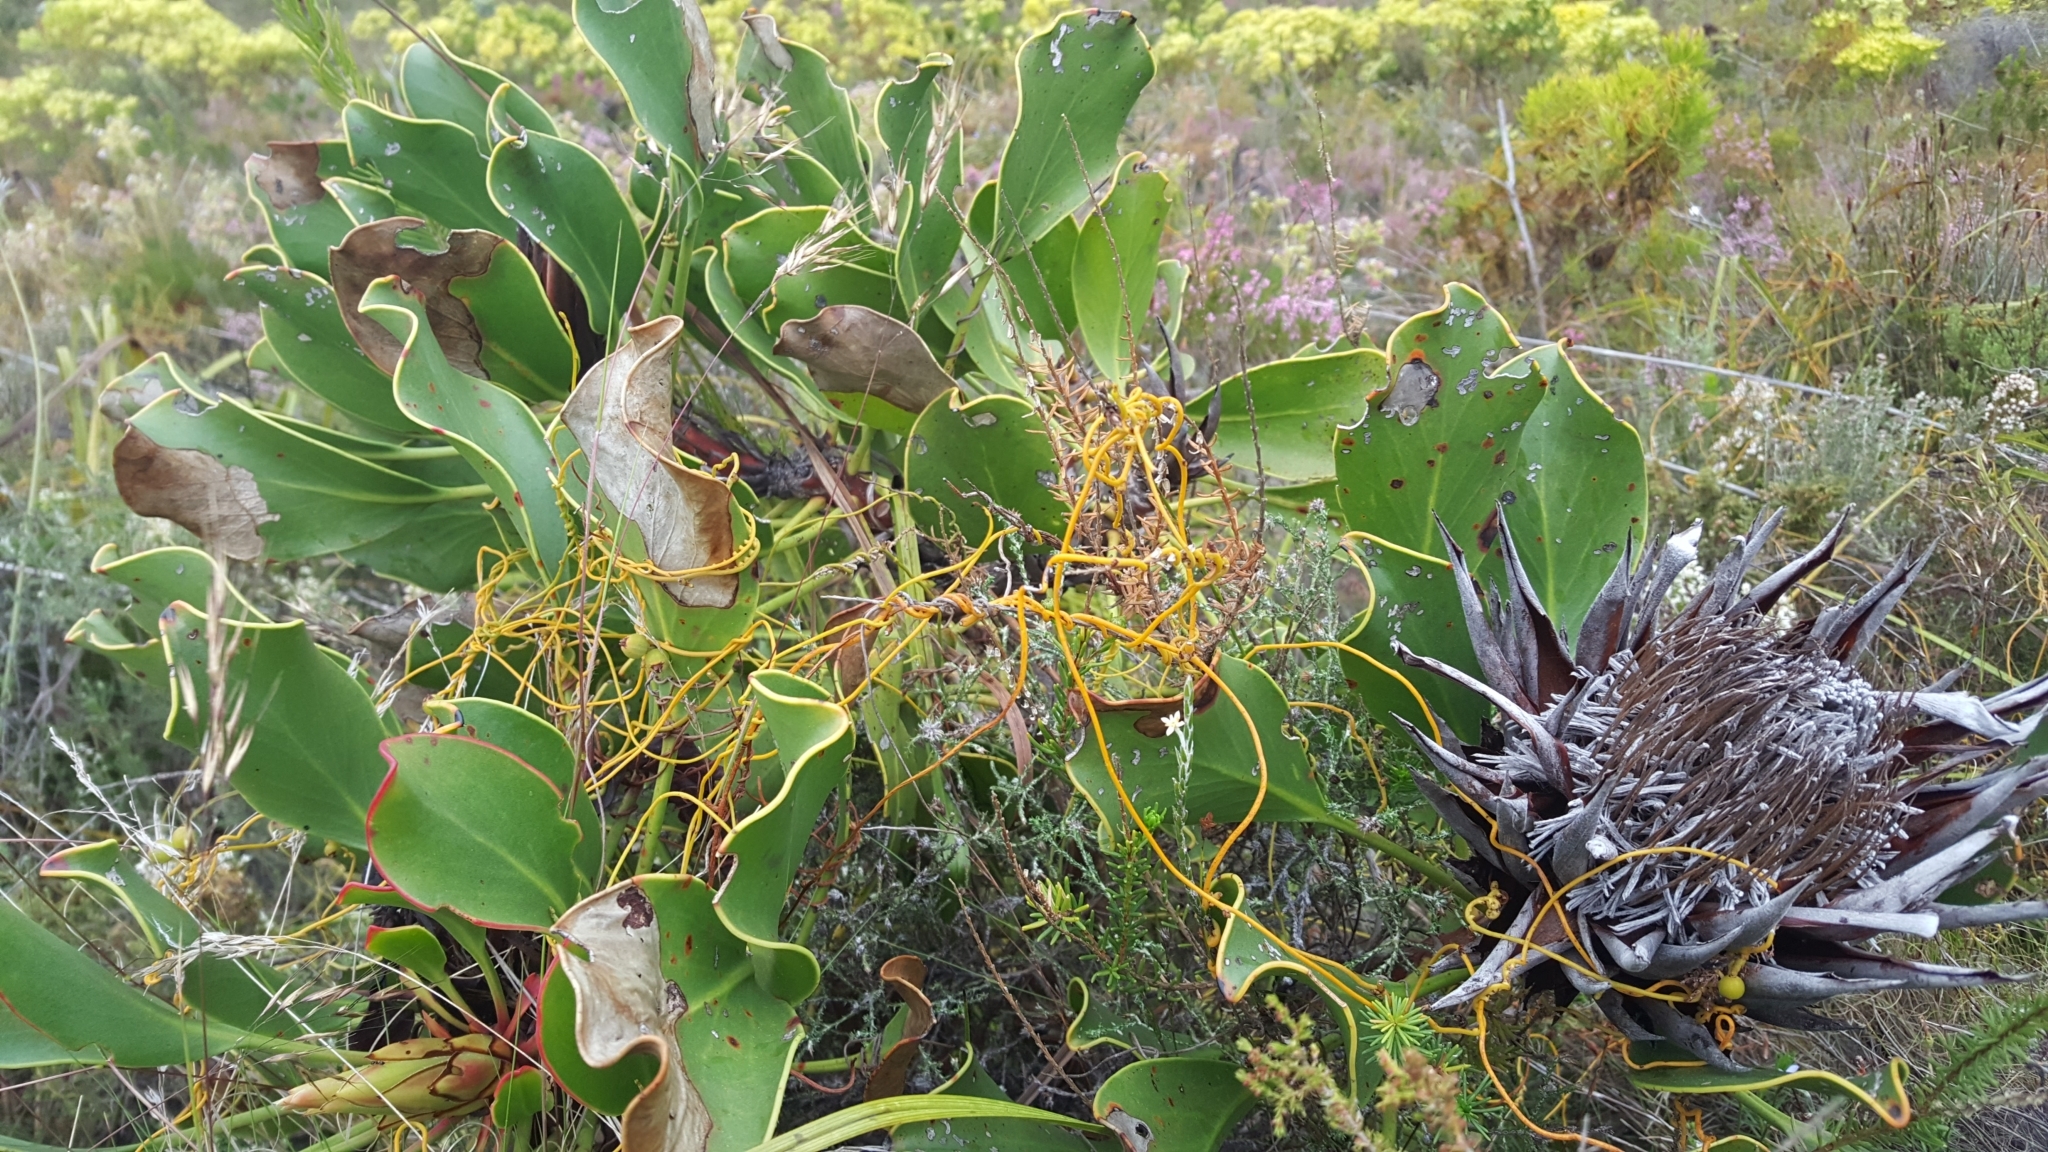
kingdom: Plantae
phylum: Tracheophyta
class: Magnoliopsida
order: Proteales
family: Proteaceae
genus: Protea
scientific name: Protea cynaroides
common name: King protea
